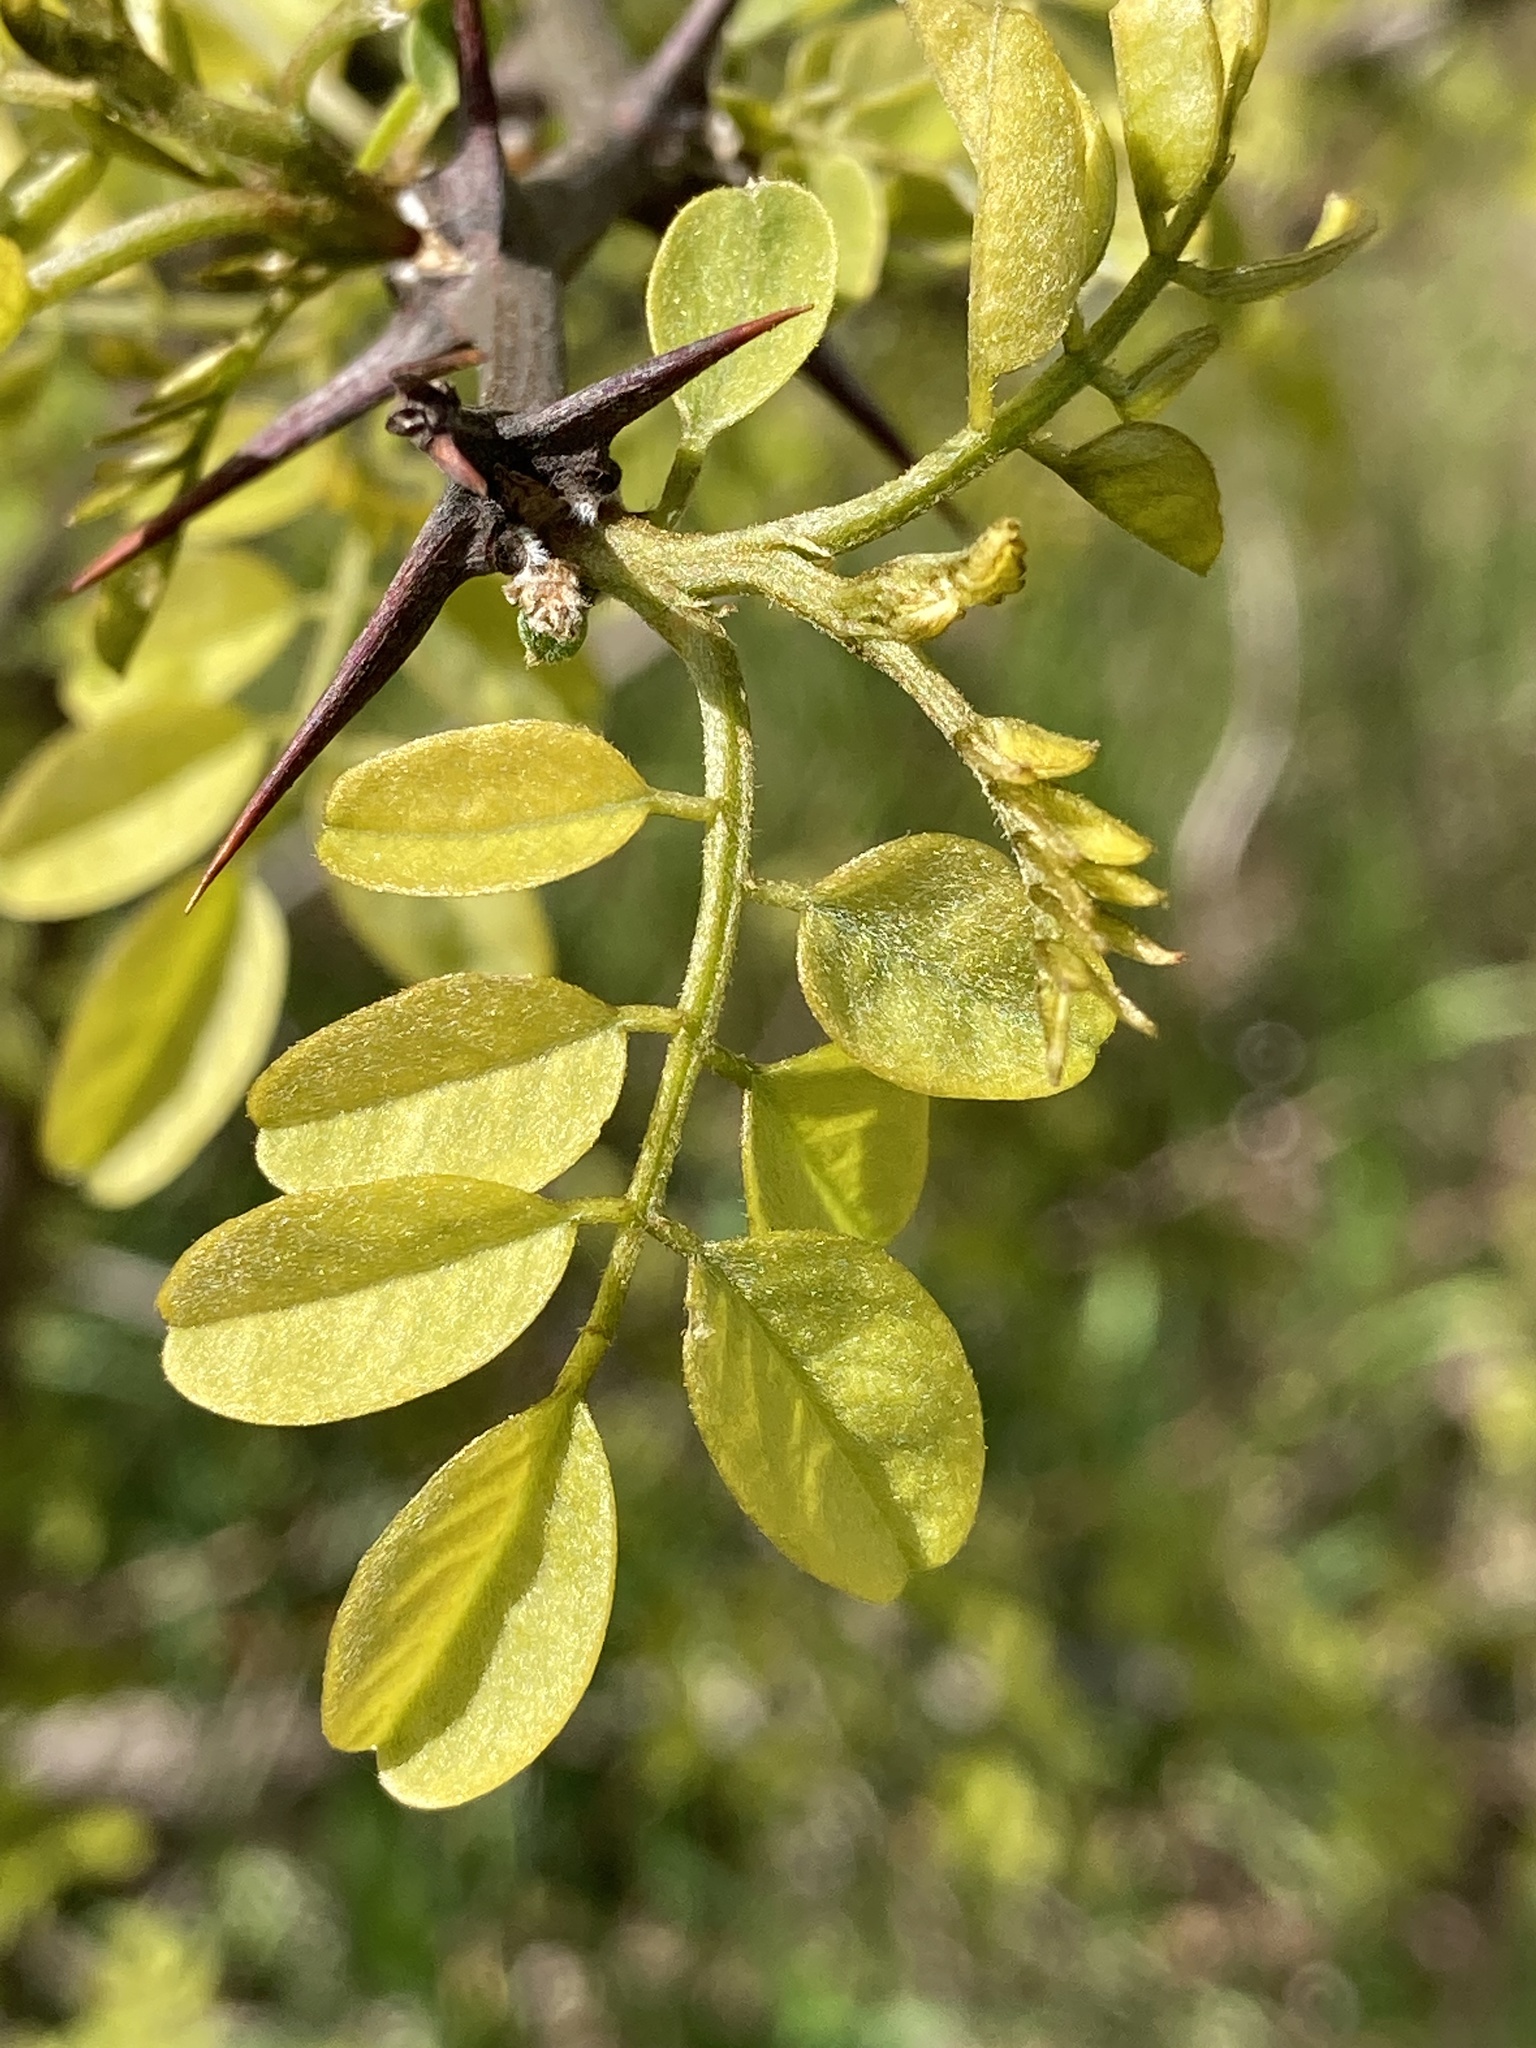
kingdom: Plantae
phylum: Tracheophyta
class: Magnoliopsida
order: Fabales
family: Fabaceae
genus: Gleditsia
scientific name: Gleditsia triacanthos
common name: Common honeylocust
